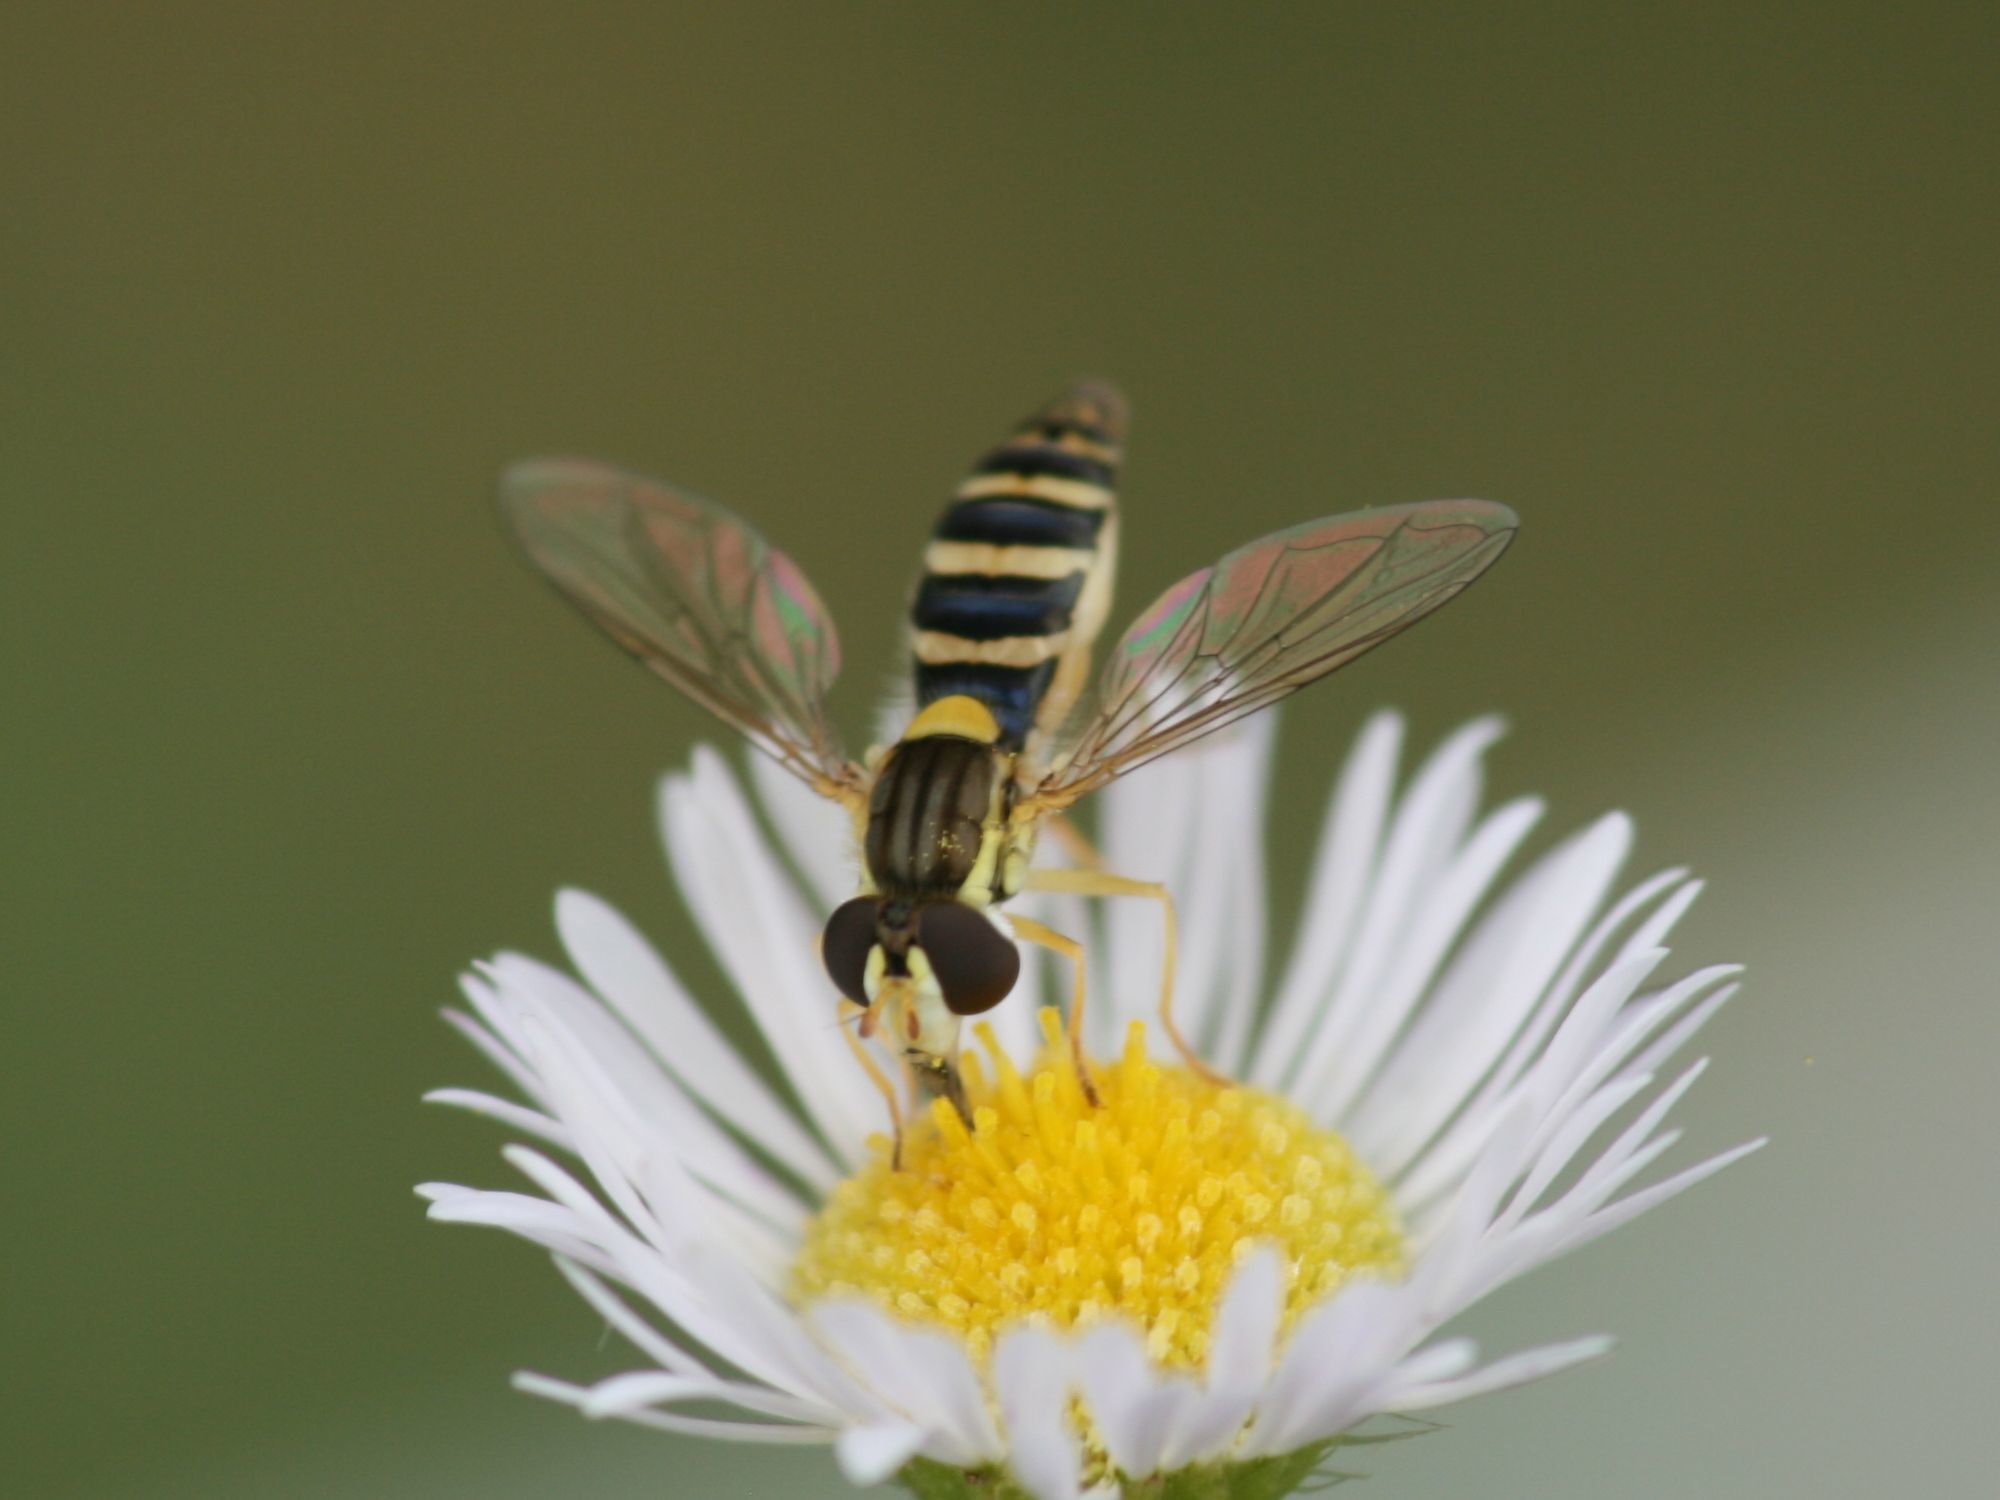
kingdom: Animalia
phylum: Arthropoda
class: Insecta
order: Diptera
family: Syrphidae
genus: Sphaerophoria
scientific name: Sphaerophoria
